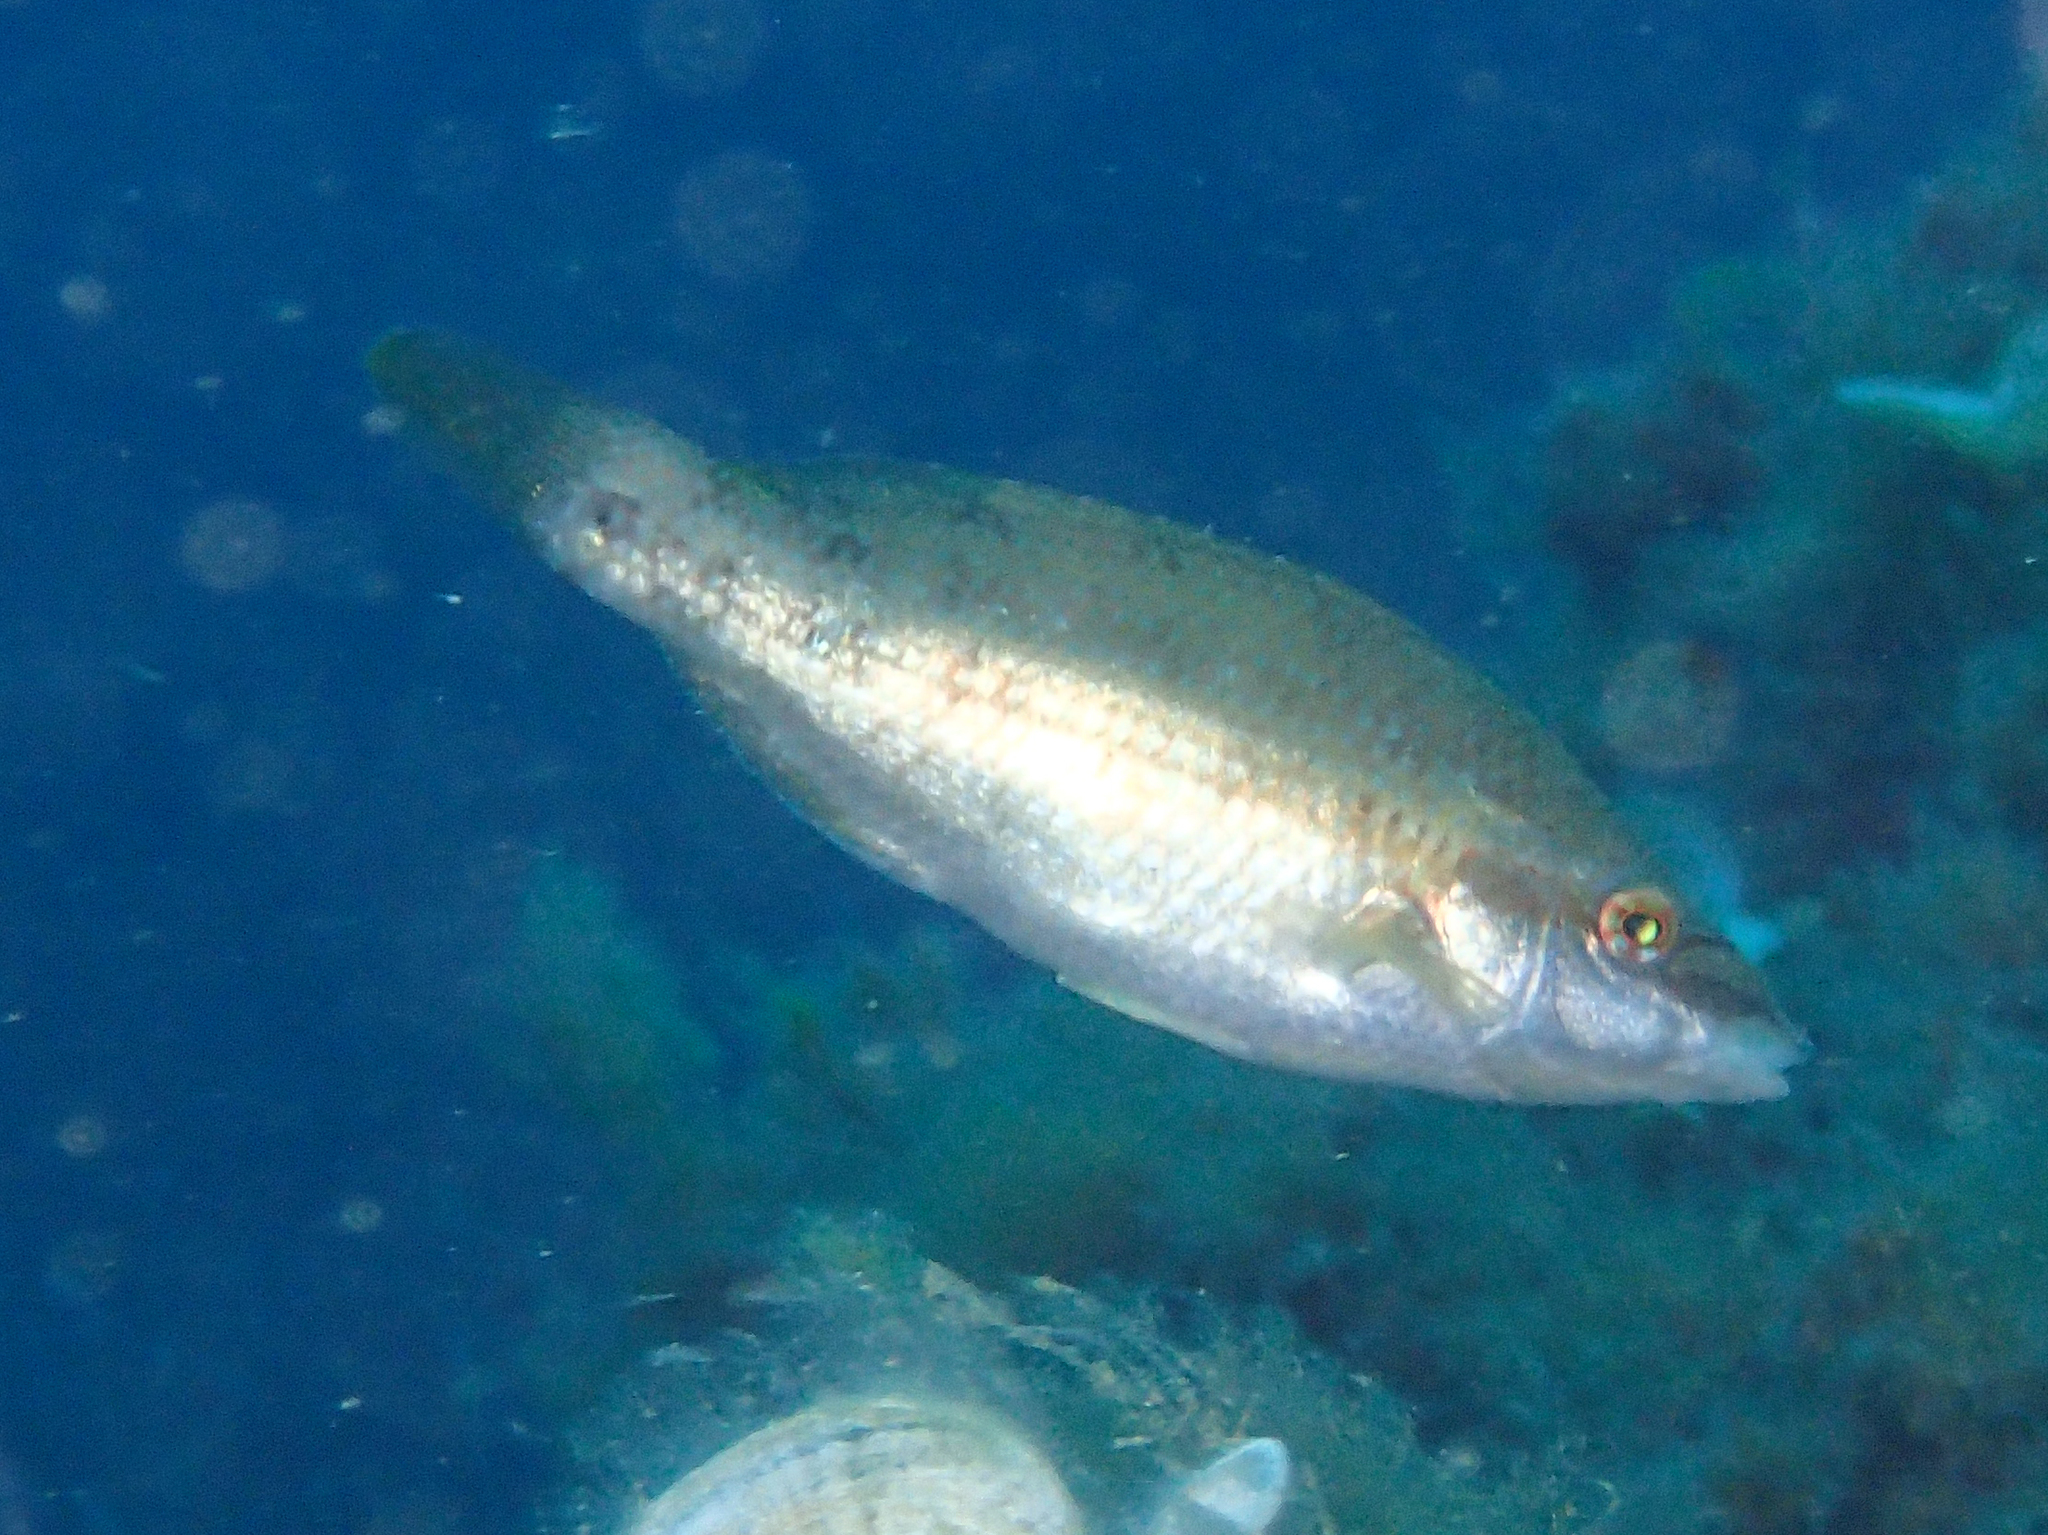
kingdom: Animalia
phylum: Chordata
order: Perciformes
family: Labridae
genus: Symphodus
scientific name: Symphodus tinca
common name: Peacock wrasse
